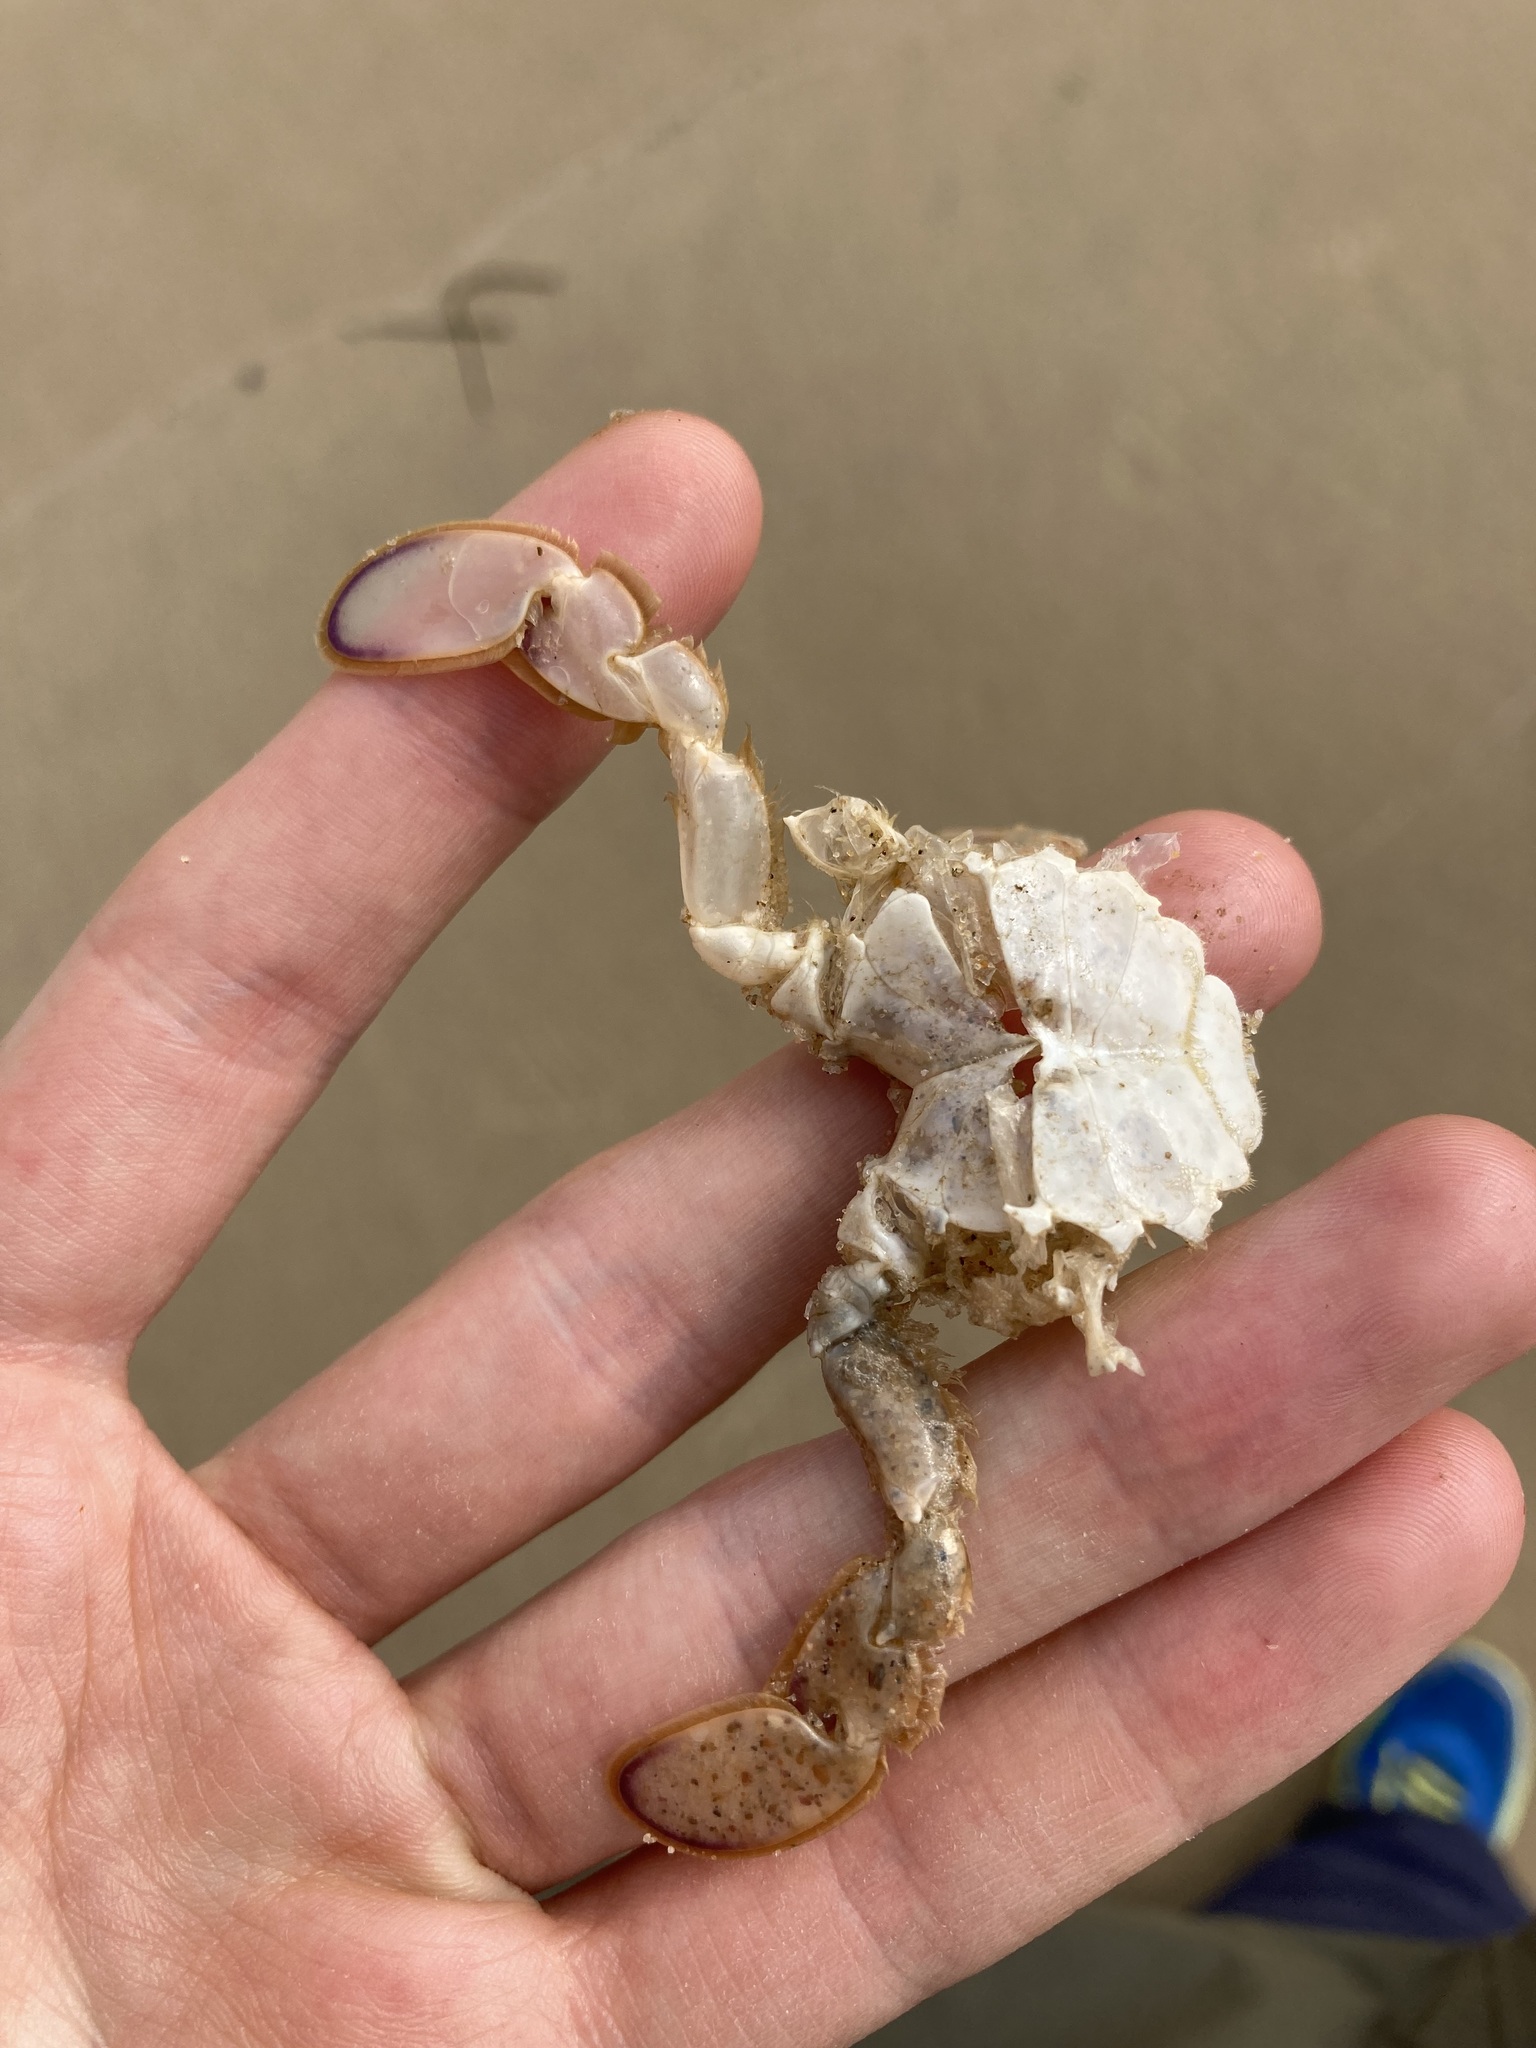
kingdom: Animalia
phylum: Arthropoda
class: Malacostraca
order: Decapoda
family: Ovalipidae
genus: Ovalipes
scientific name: Ovalipes australiensis
